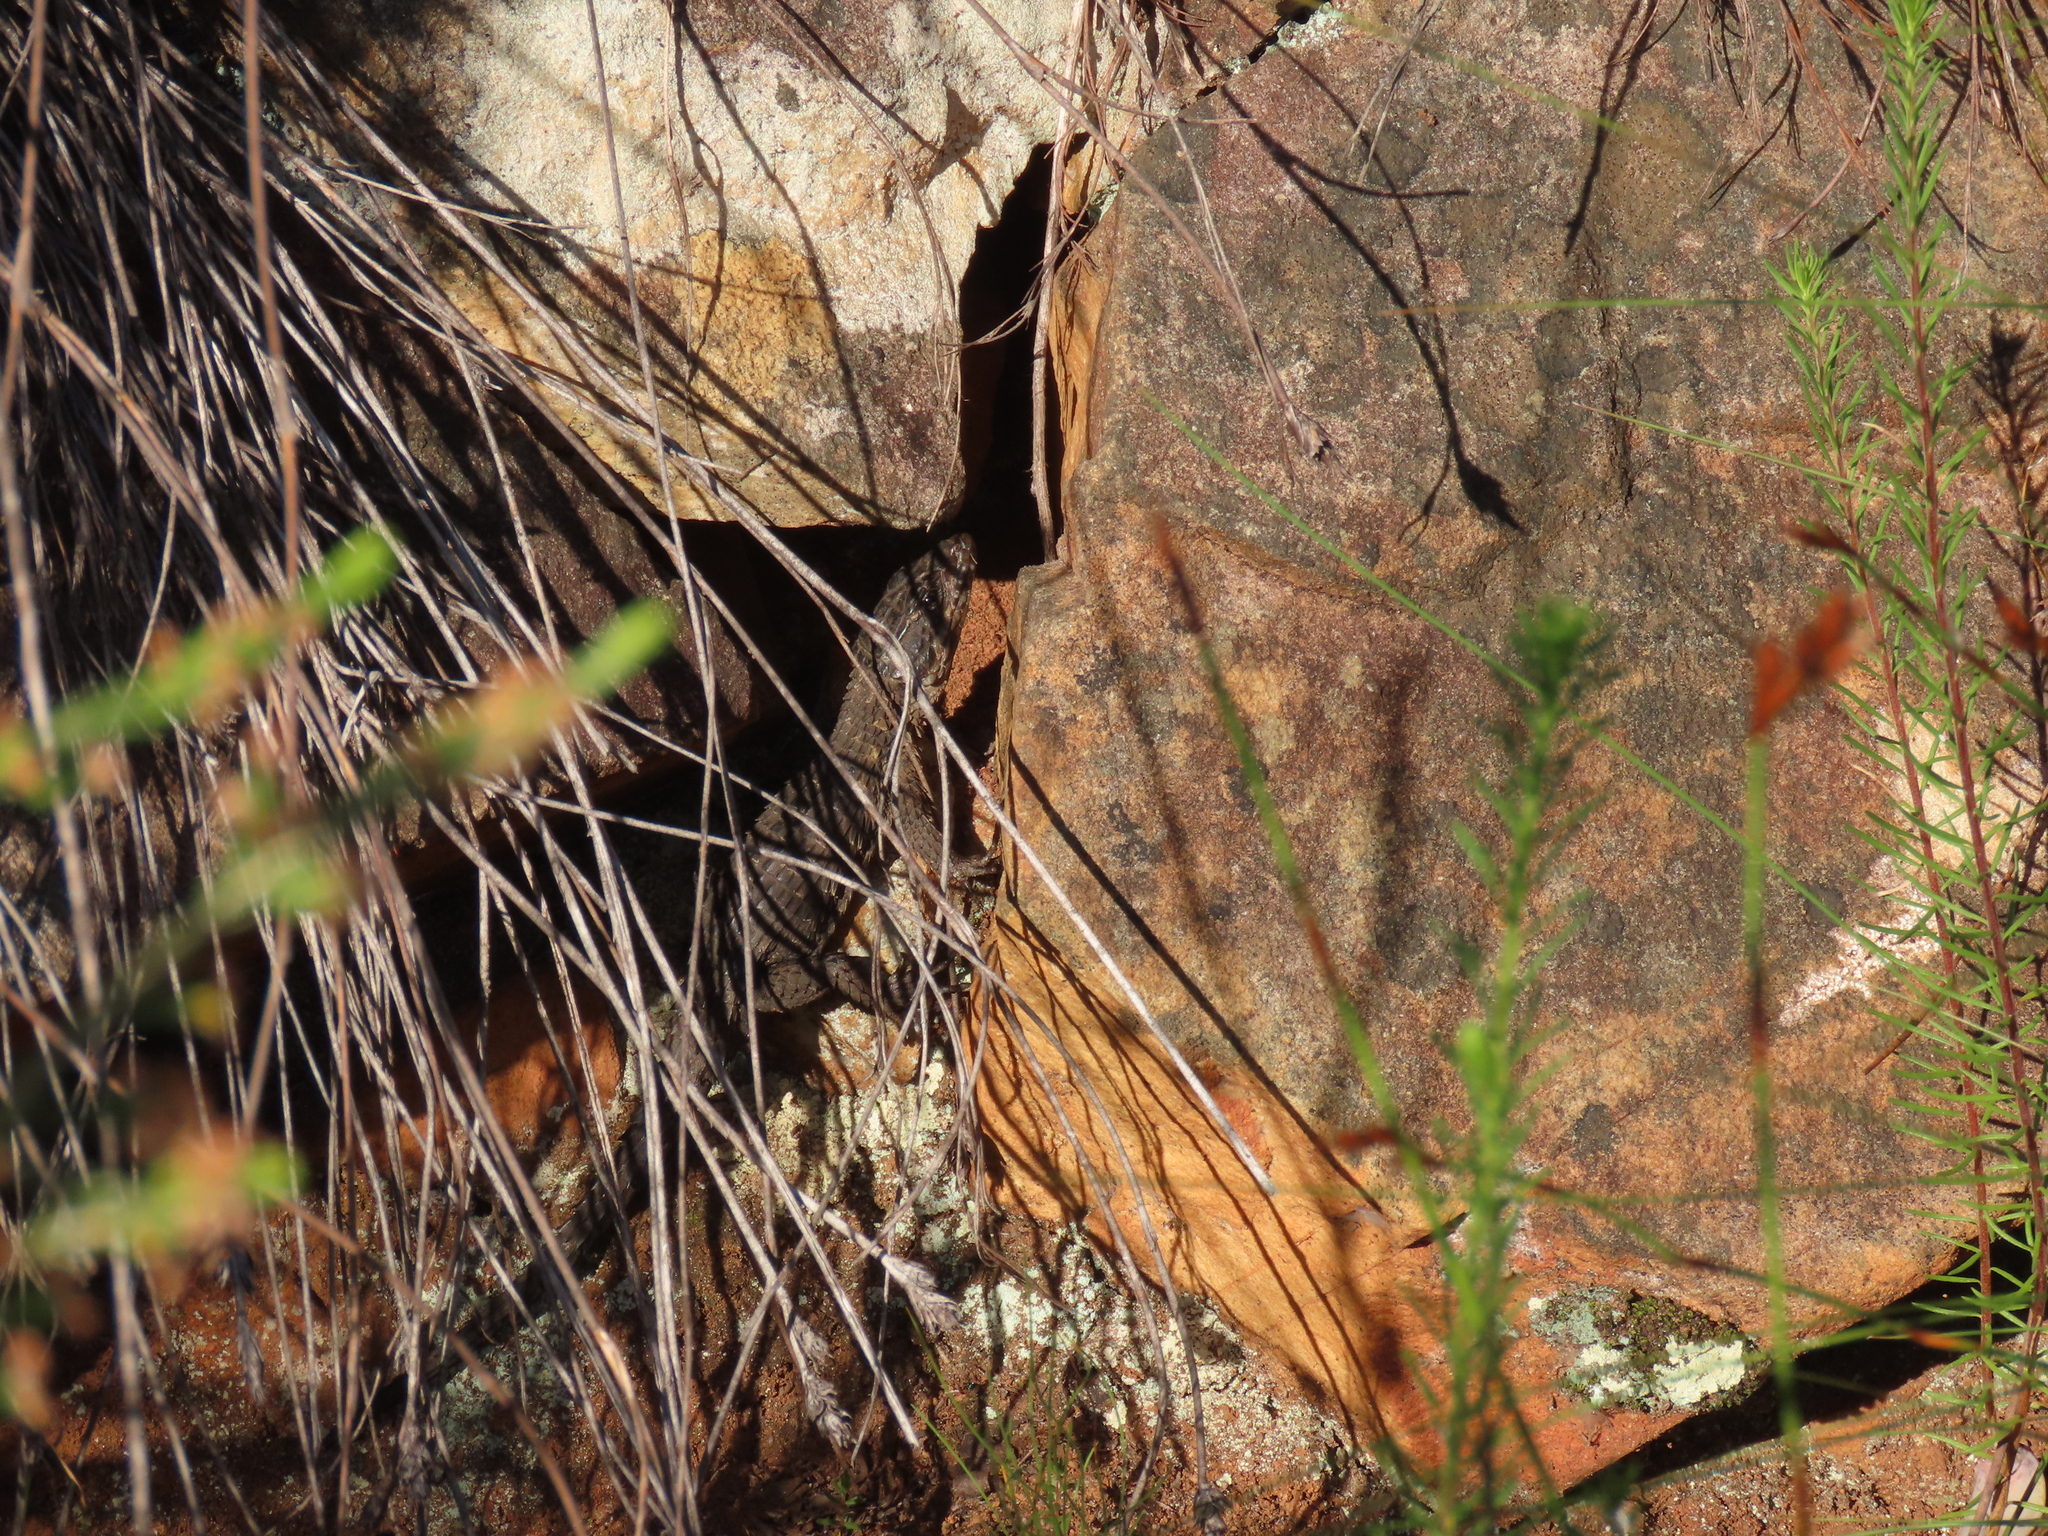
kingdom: Animalia
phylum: Chordata
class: Squamata
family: Cordylidae
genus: Cordylus
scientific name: Cordylus niger
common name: Black girdled lizard
